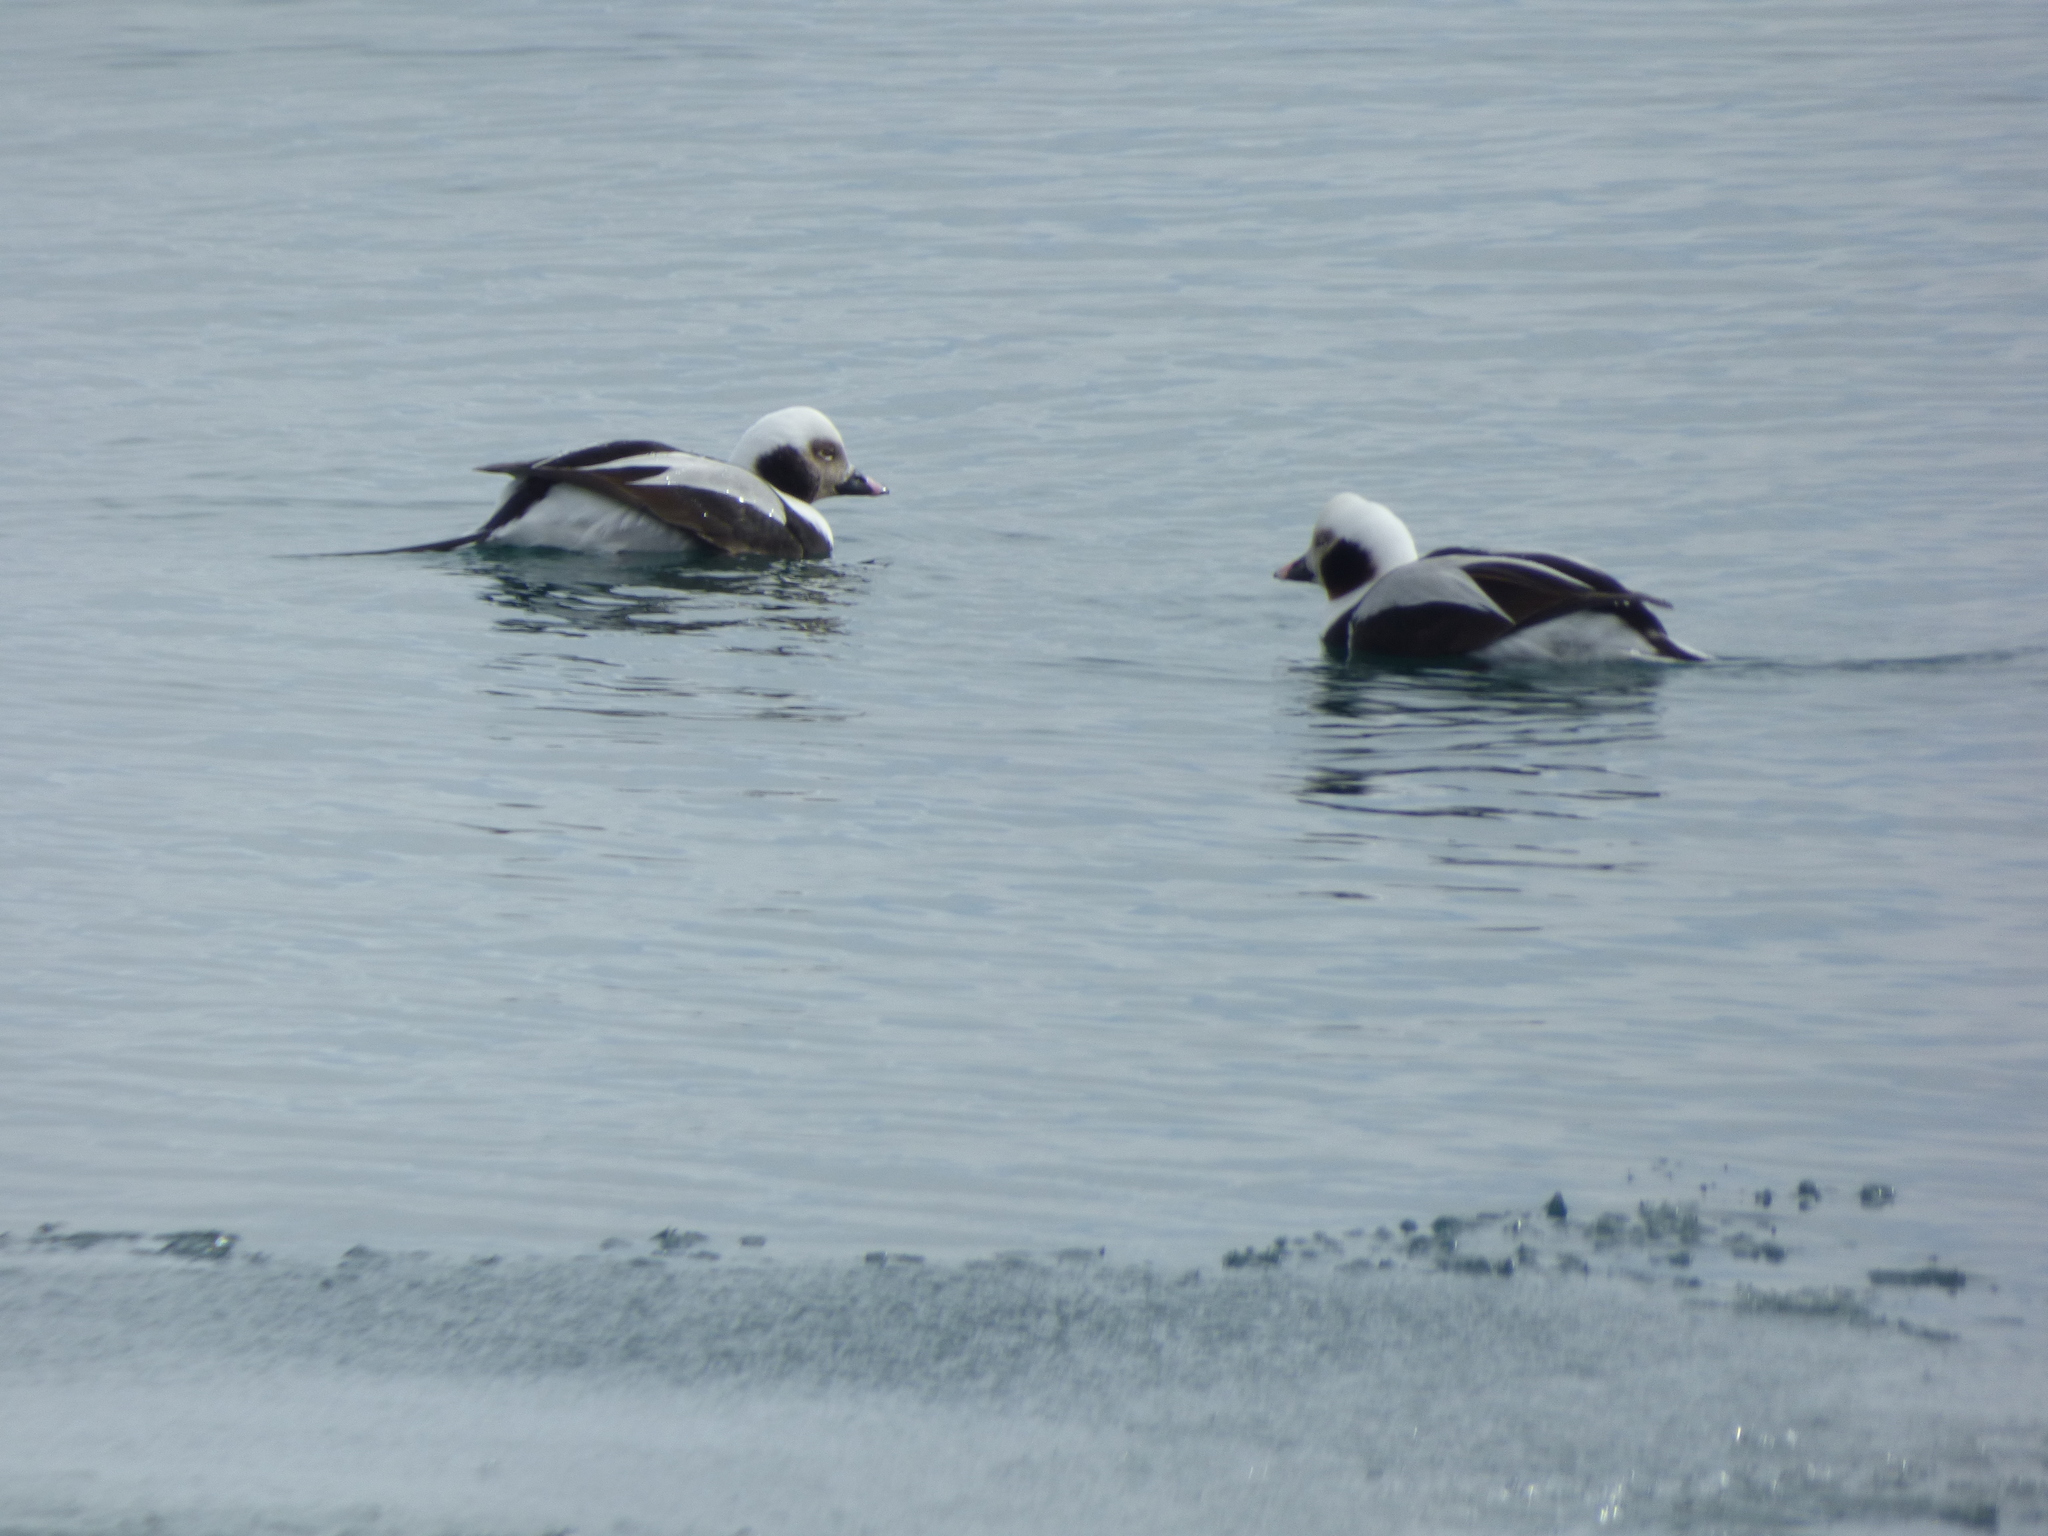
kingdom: Animalia
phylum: Chordata
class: Aves
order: Anseriformes
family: Anatidae
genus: Clangula
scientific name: Clangula hyemalis
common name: Long-tailed duck
